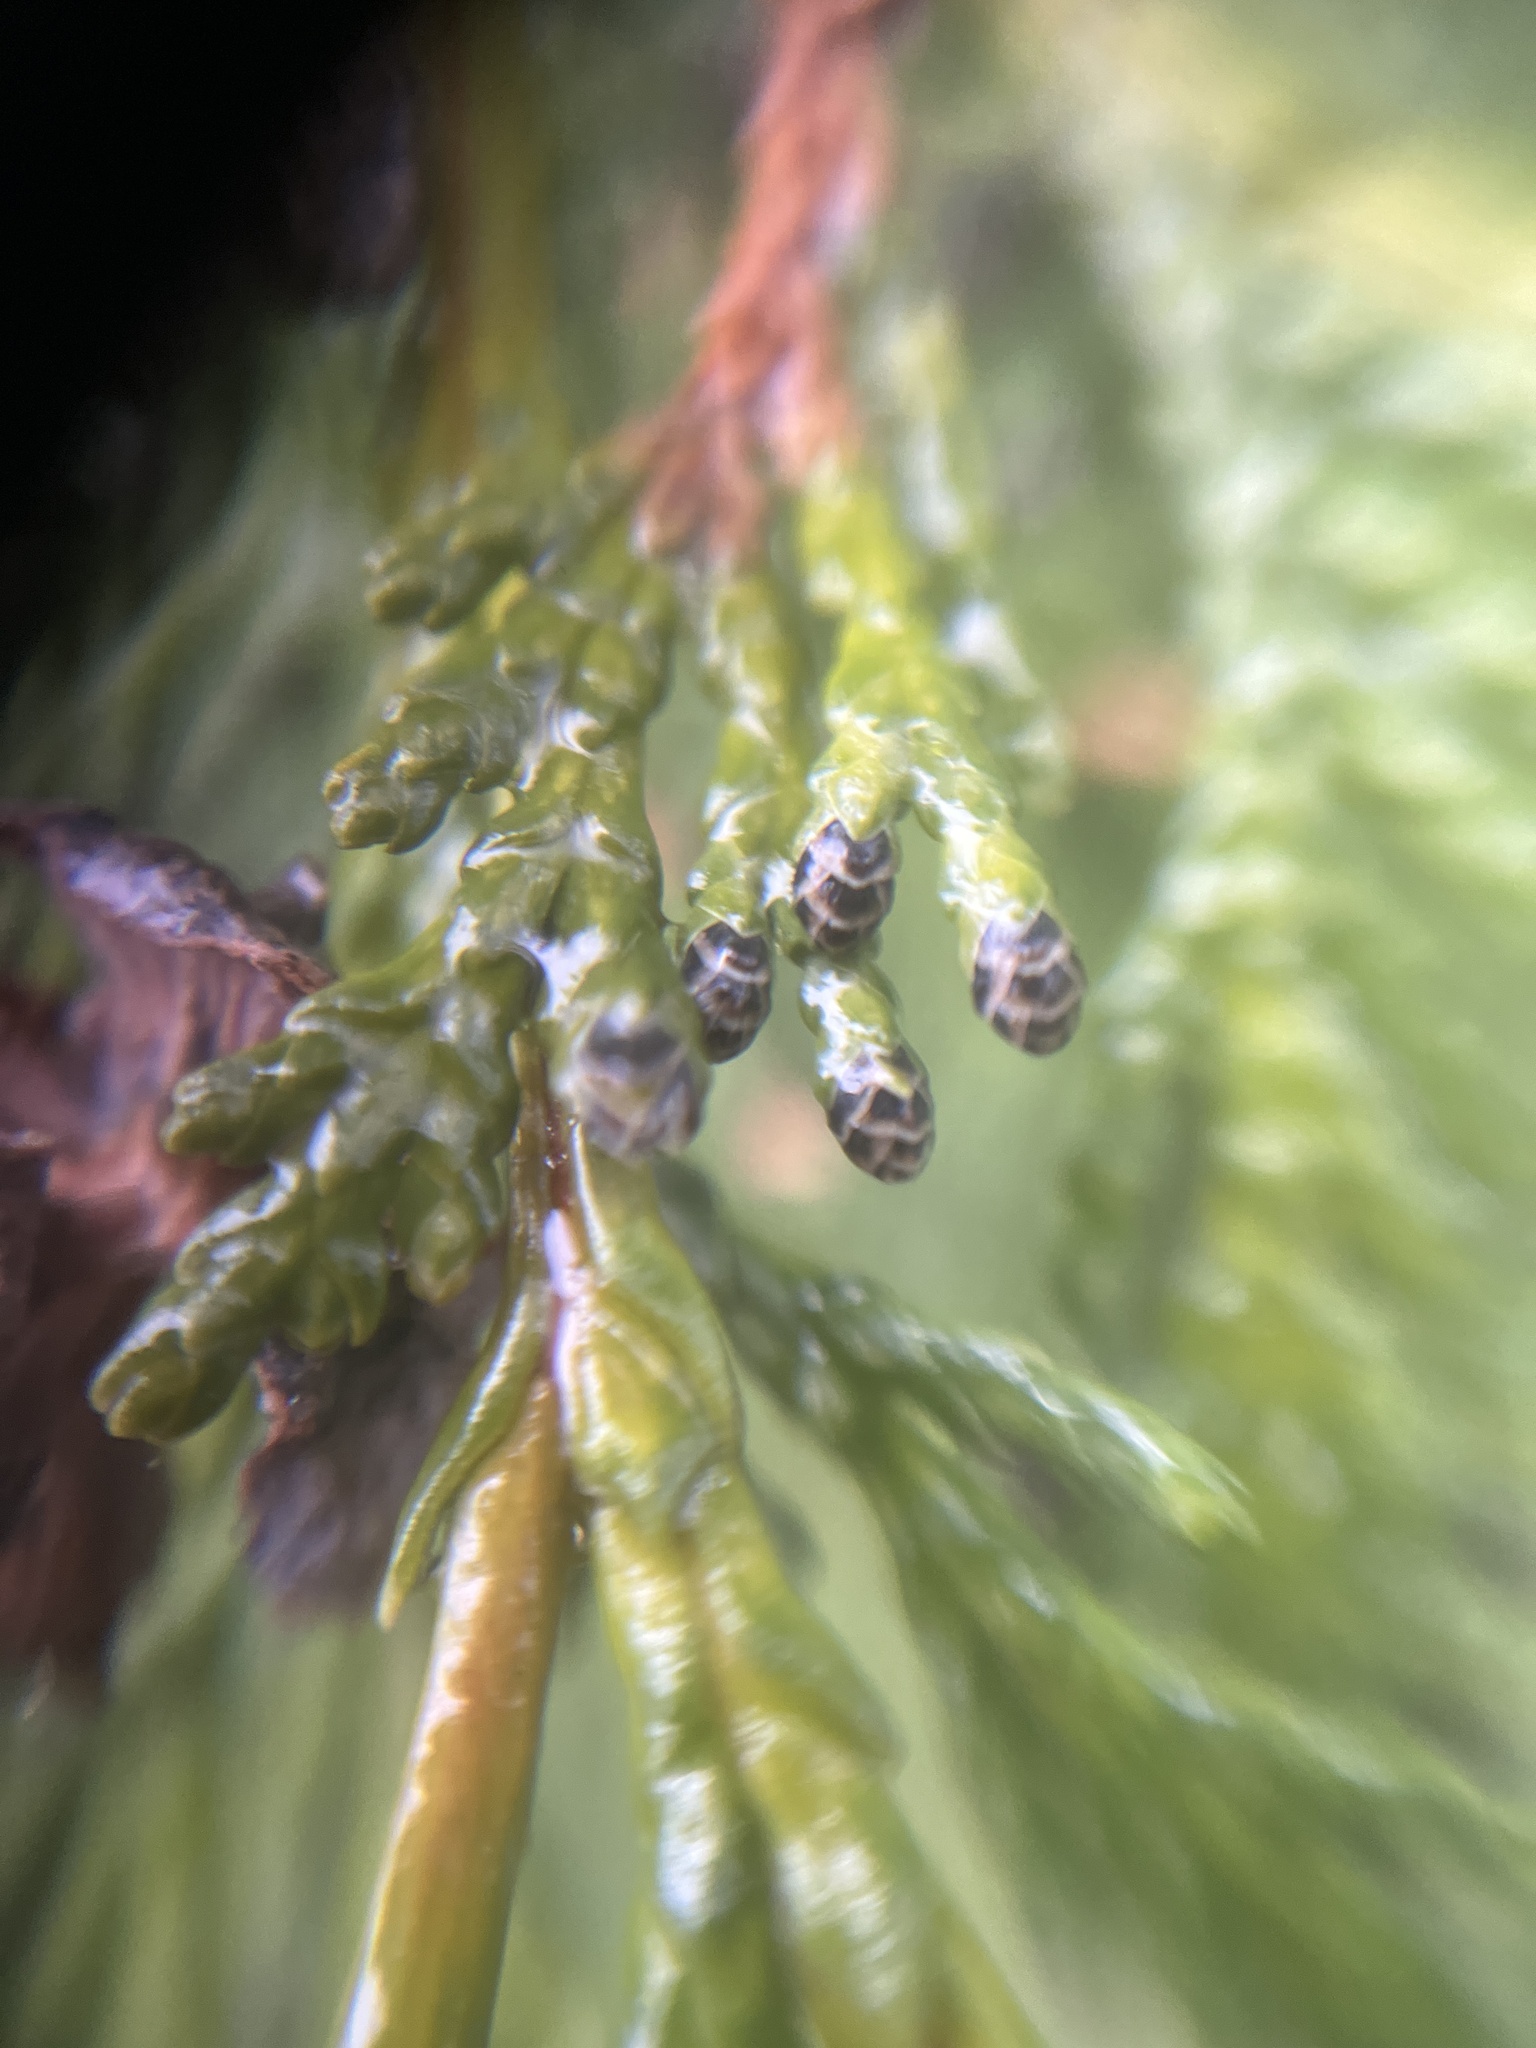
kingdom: Plantae
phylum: Tracheophyta
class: Pinopsida
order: Pinales
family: Cupressaceae
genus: Chamaecyparis
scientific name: Chamaecyparis lawsoniana
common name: Lawson's cypress
